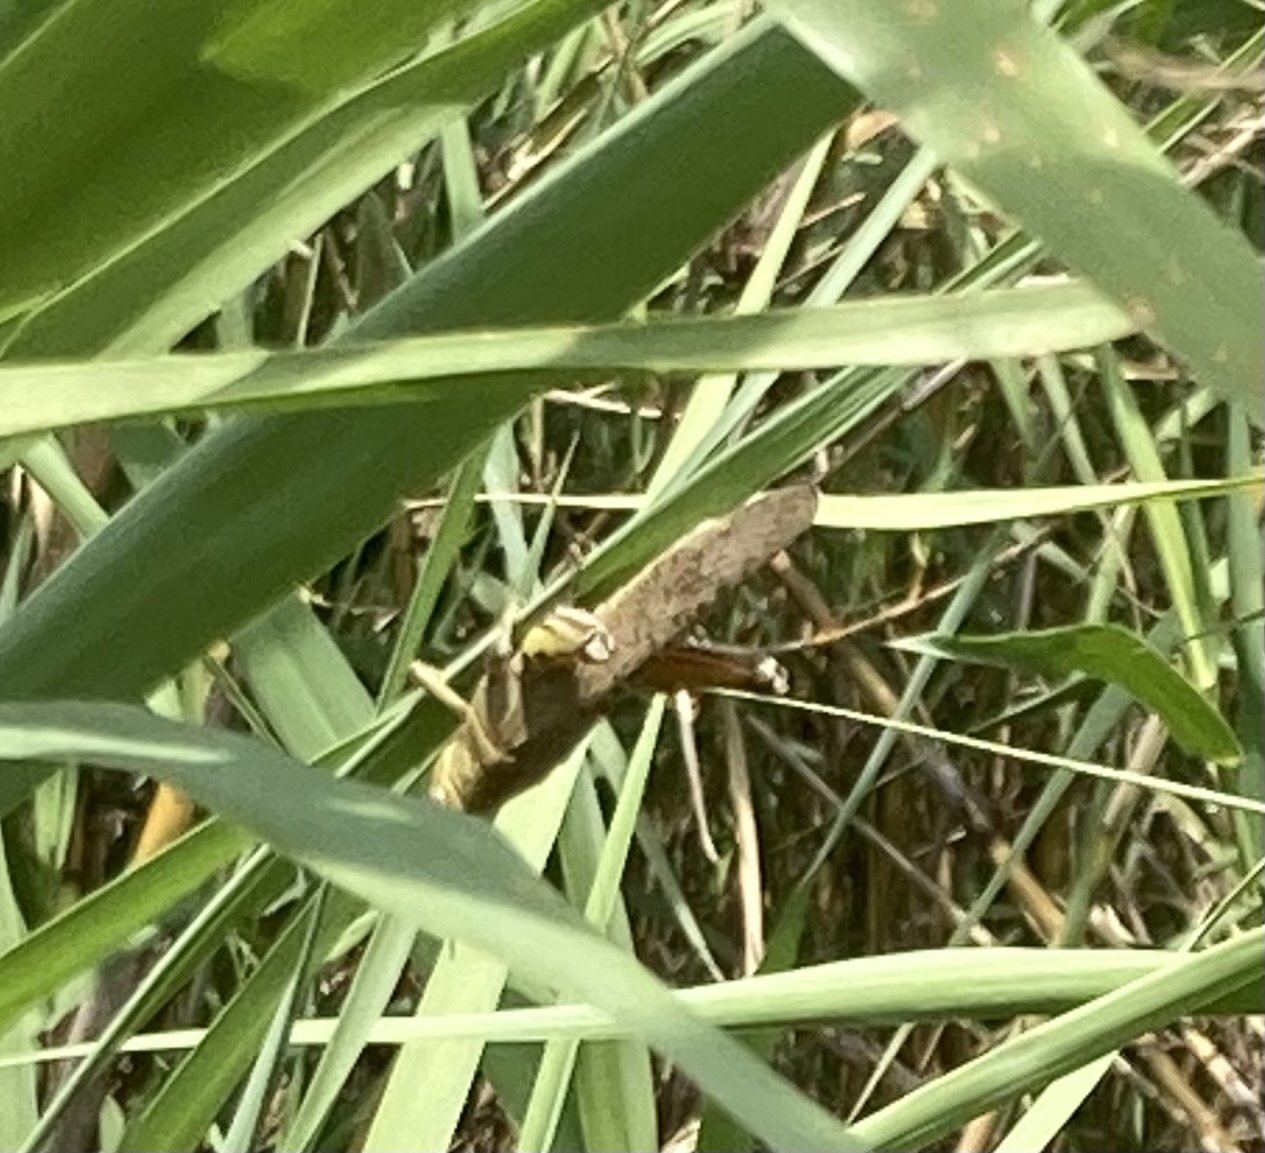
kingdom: Animalia
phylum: Arthropoda
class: Insecta
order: Orthoptera
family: Acrididae
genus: Anacridium
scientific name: Anacridium aegyptium
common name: Egyptian grasshopper
